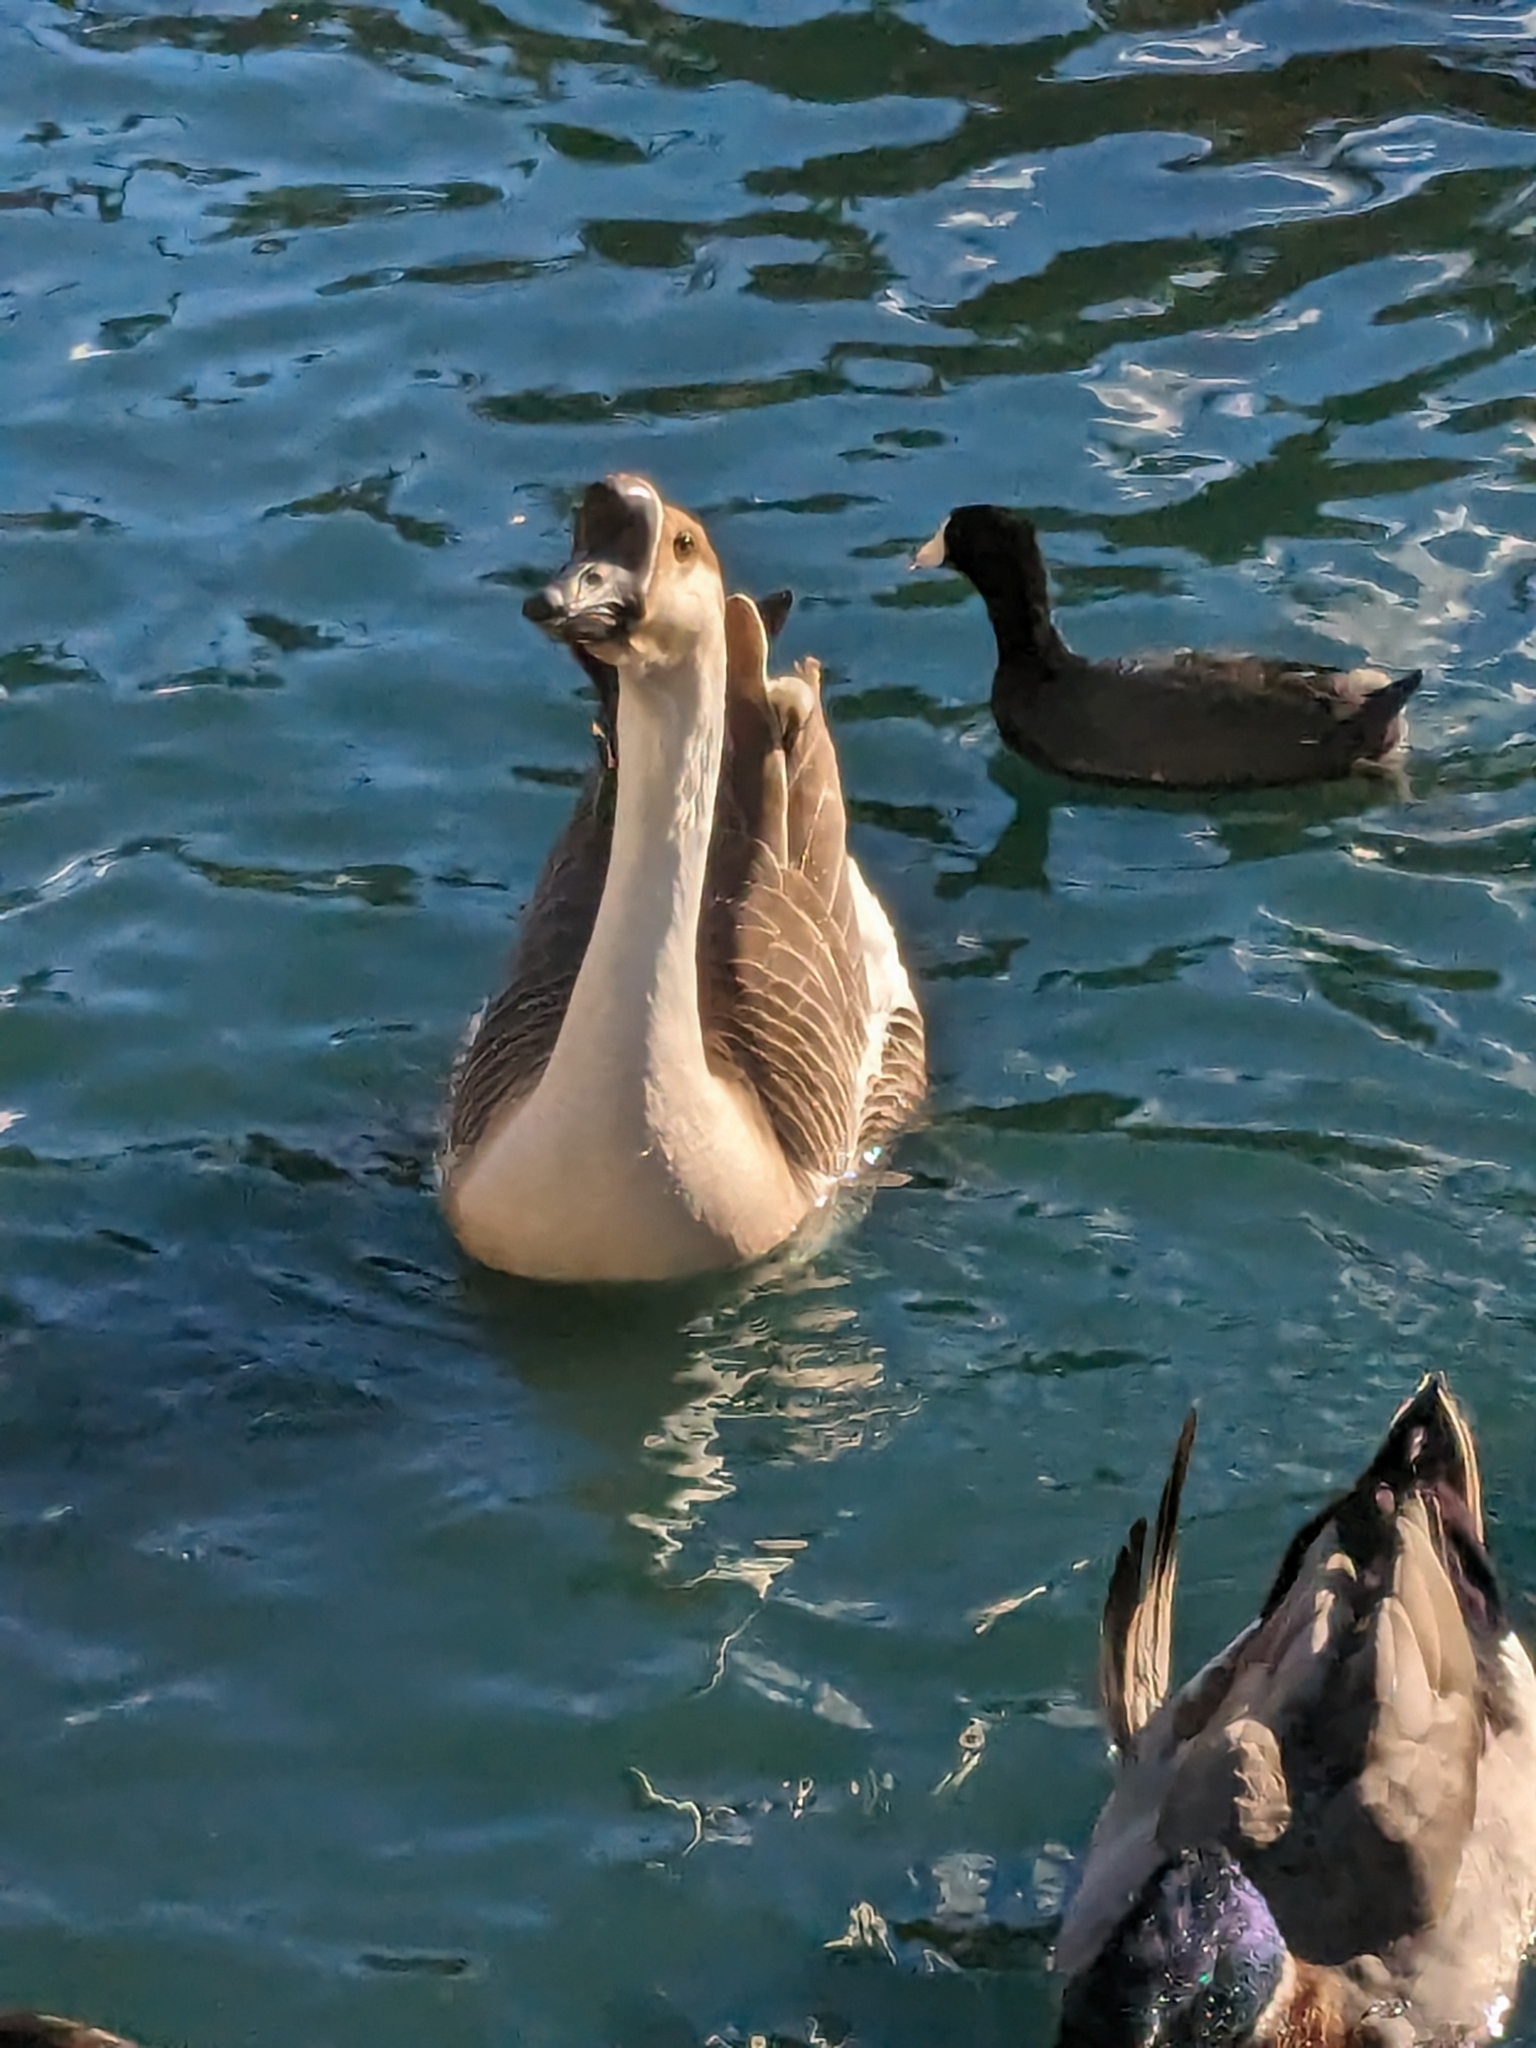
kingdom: Animalia
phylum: Chordata
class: Aves
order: Anseriformes
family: Anatidae
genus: Anser
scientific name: Anser cygnoides
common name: Swan goose
